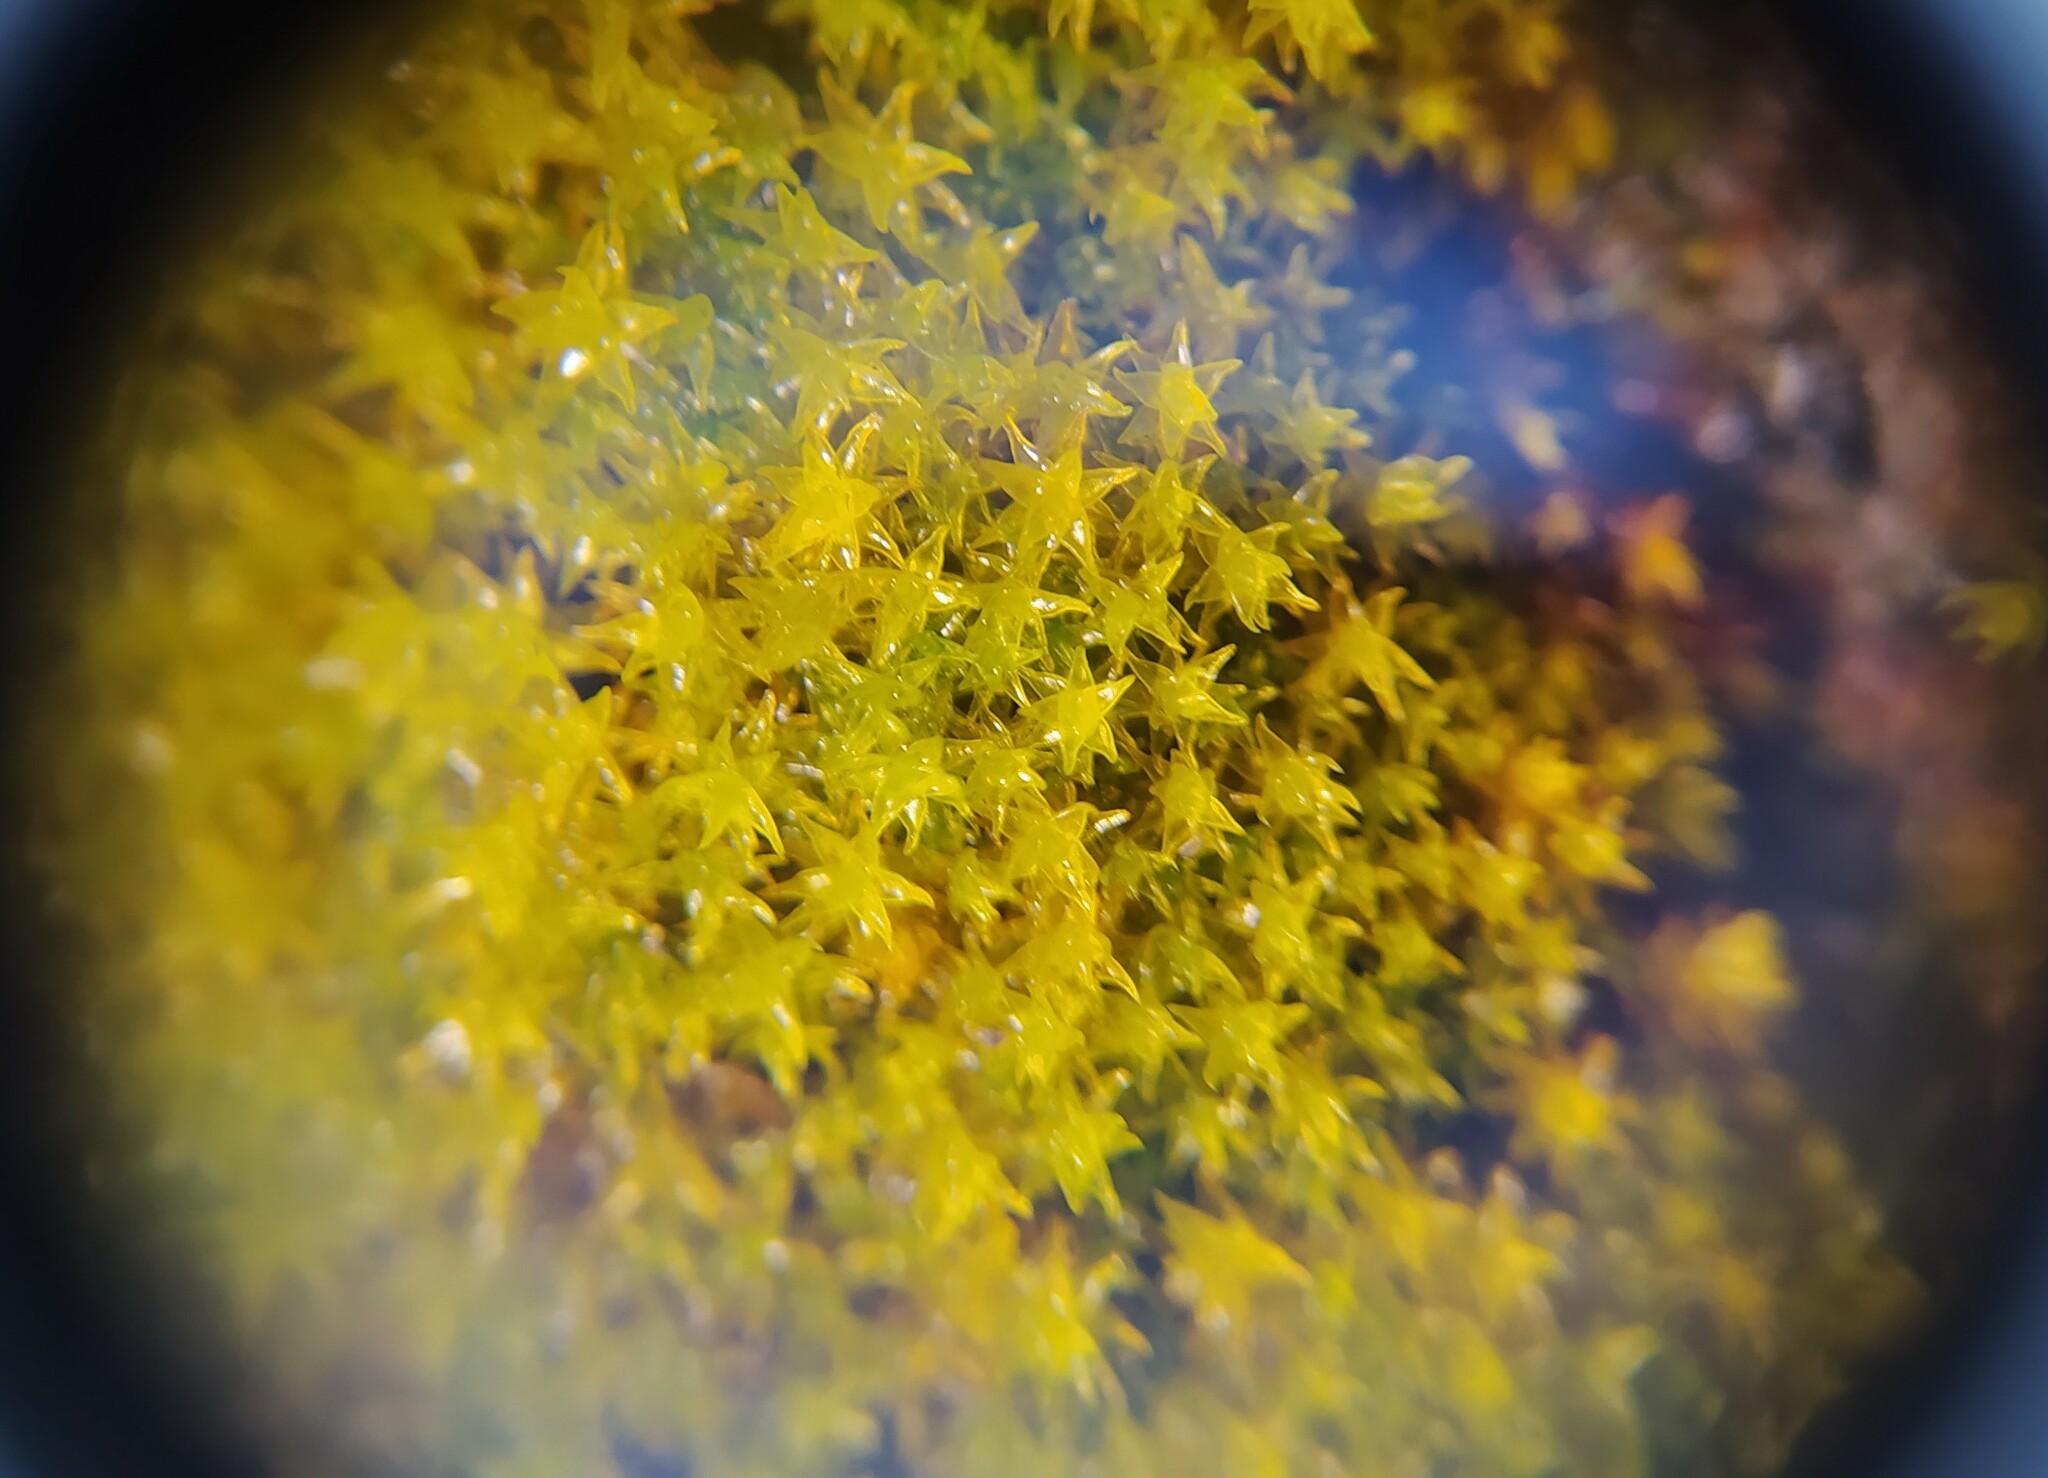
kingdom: Plantae
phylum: Bryophyta
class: Andreaeopsida
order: Andreaeales
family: Andreaeaceae
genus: Andreaea
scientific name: Andreaea rupestris
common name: Black rock moss
